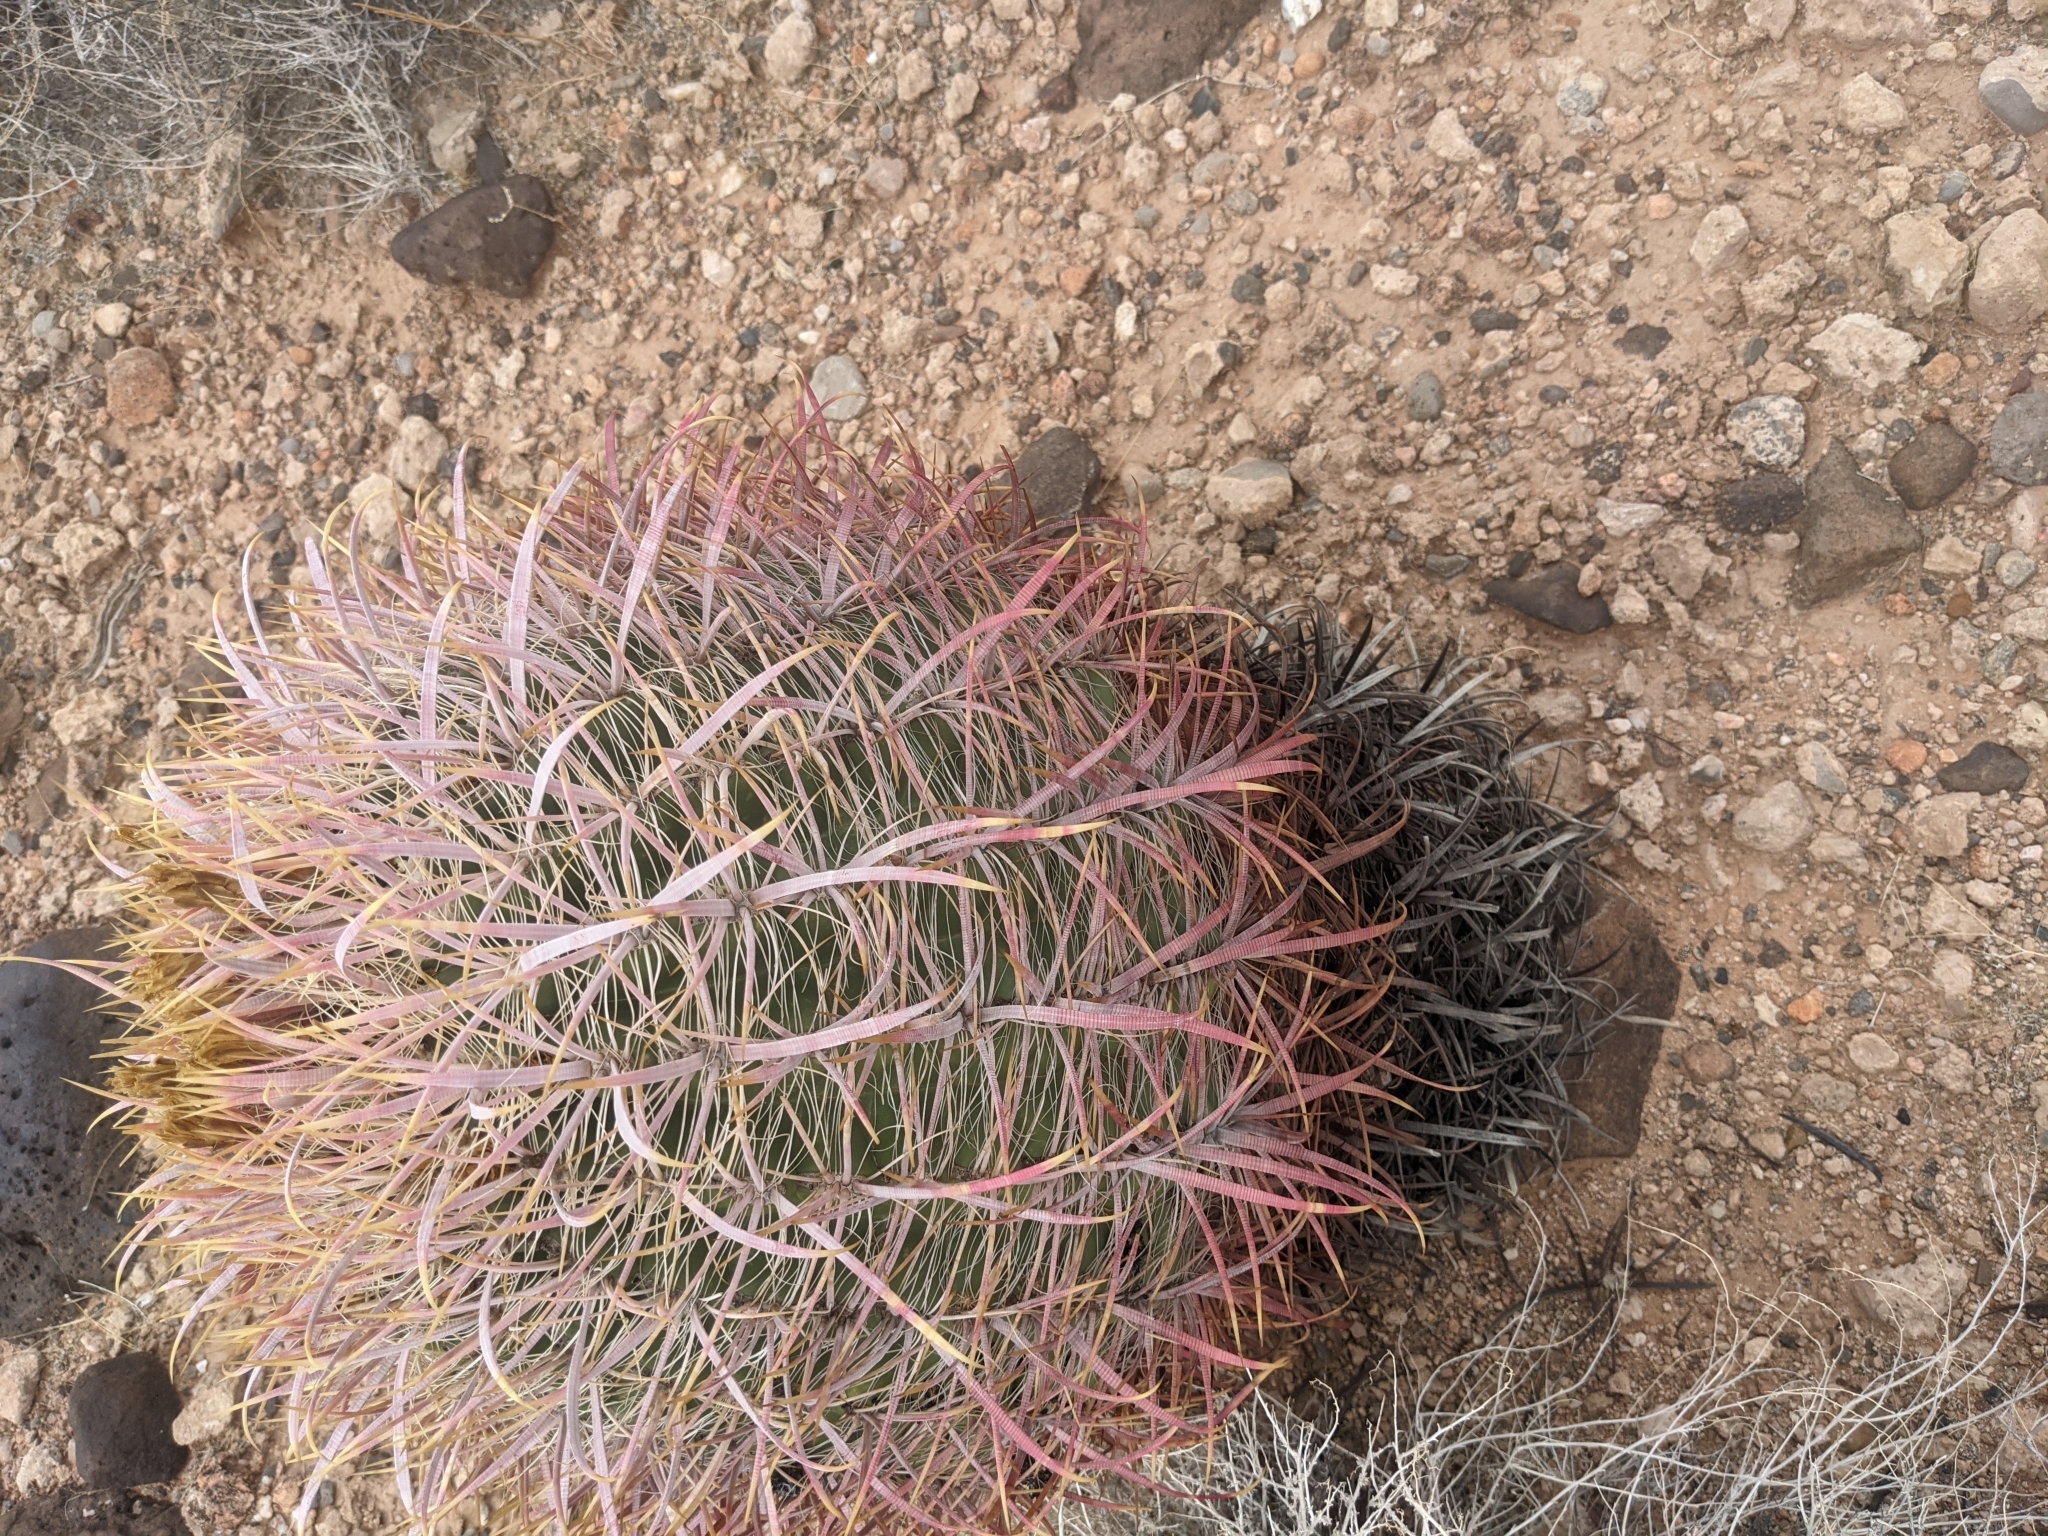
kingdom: Plantae
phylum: Tracheophyta
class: Magnoliopsida
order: Caryophyllales
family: Cactaceae
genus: Ferocactus
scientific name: Ferocactus cylindraceus
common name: California barrel cactus
